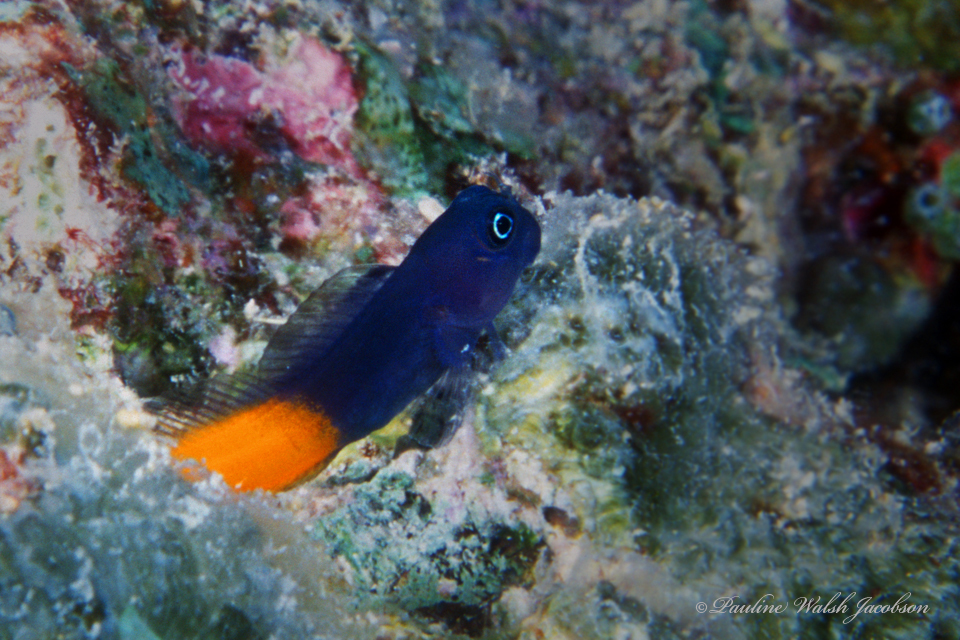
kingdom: Animalia
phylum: Chordata
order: Perciformes
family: Blenniidae
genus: Ecsenius
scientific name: Ecsenius bicolor
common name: Bicolor blenny
